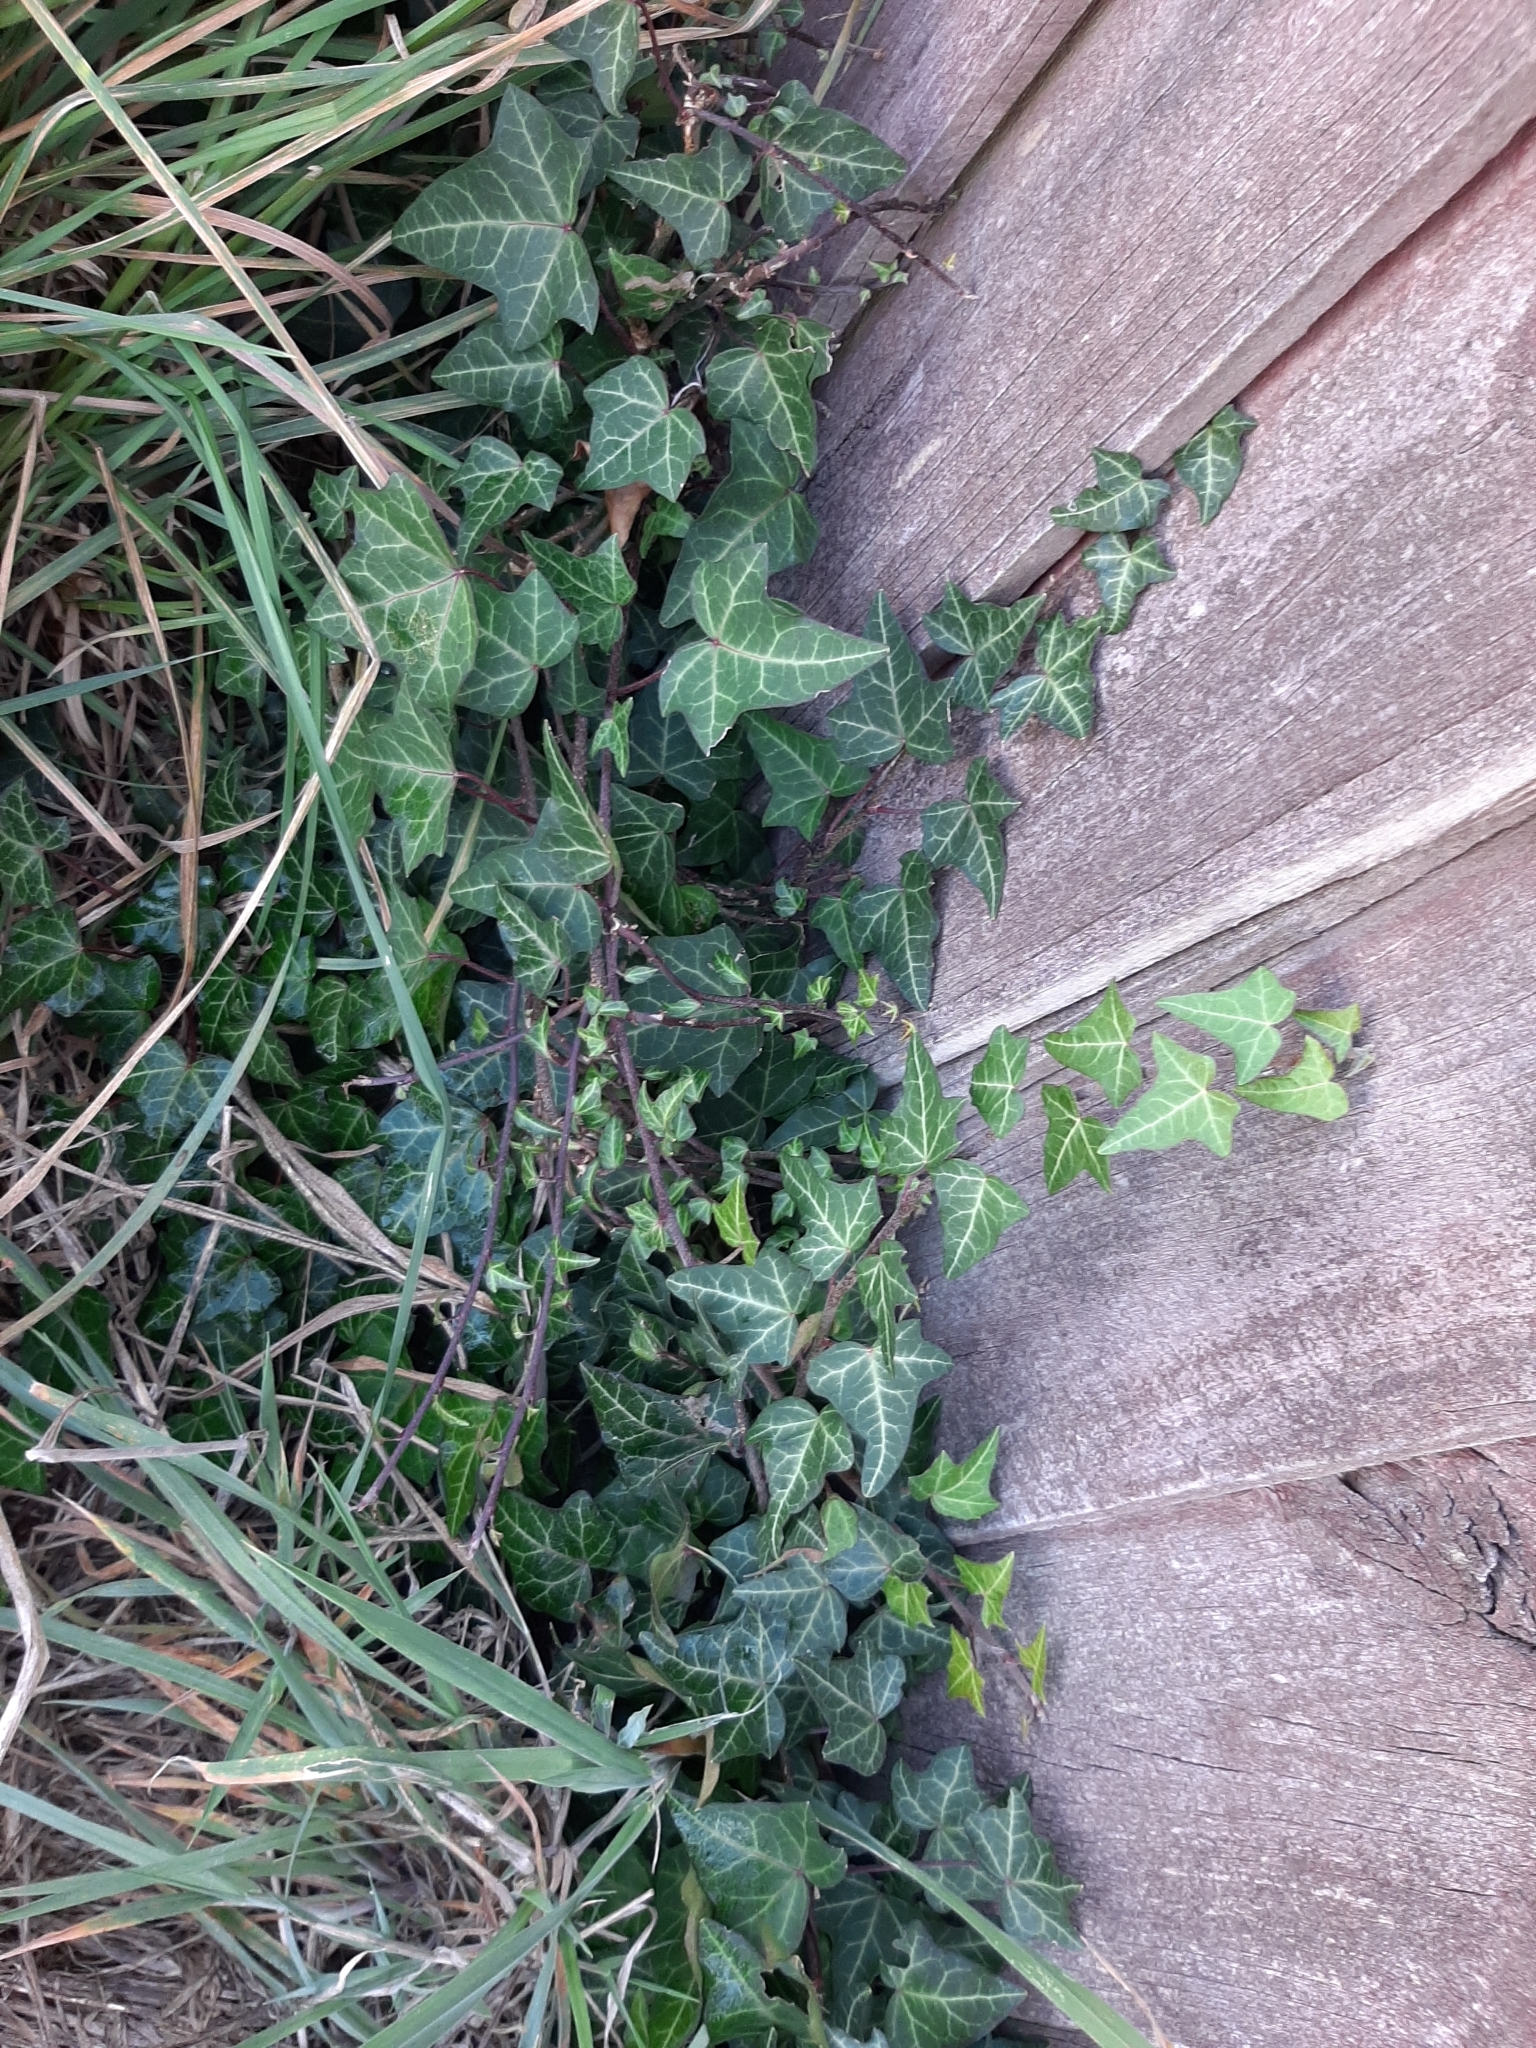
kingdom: Plantae
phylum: Tracheophyta
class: Magnoliopsida
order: Apiales
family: Araliaceae
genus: Hedera
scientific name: Hedera helix
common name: Ivy
